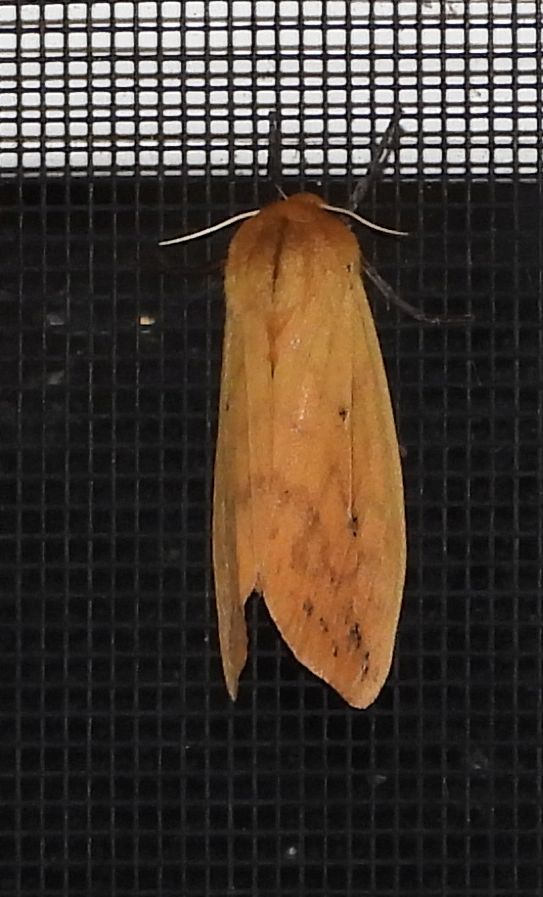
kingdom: Animalia
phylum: Arthropoda
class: Insecta
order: Lepidoptera
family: Erebidae
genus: Pyrrharctia
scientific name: Pyrrharctia isabella
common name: Isabella tiger moth
